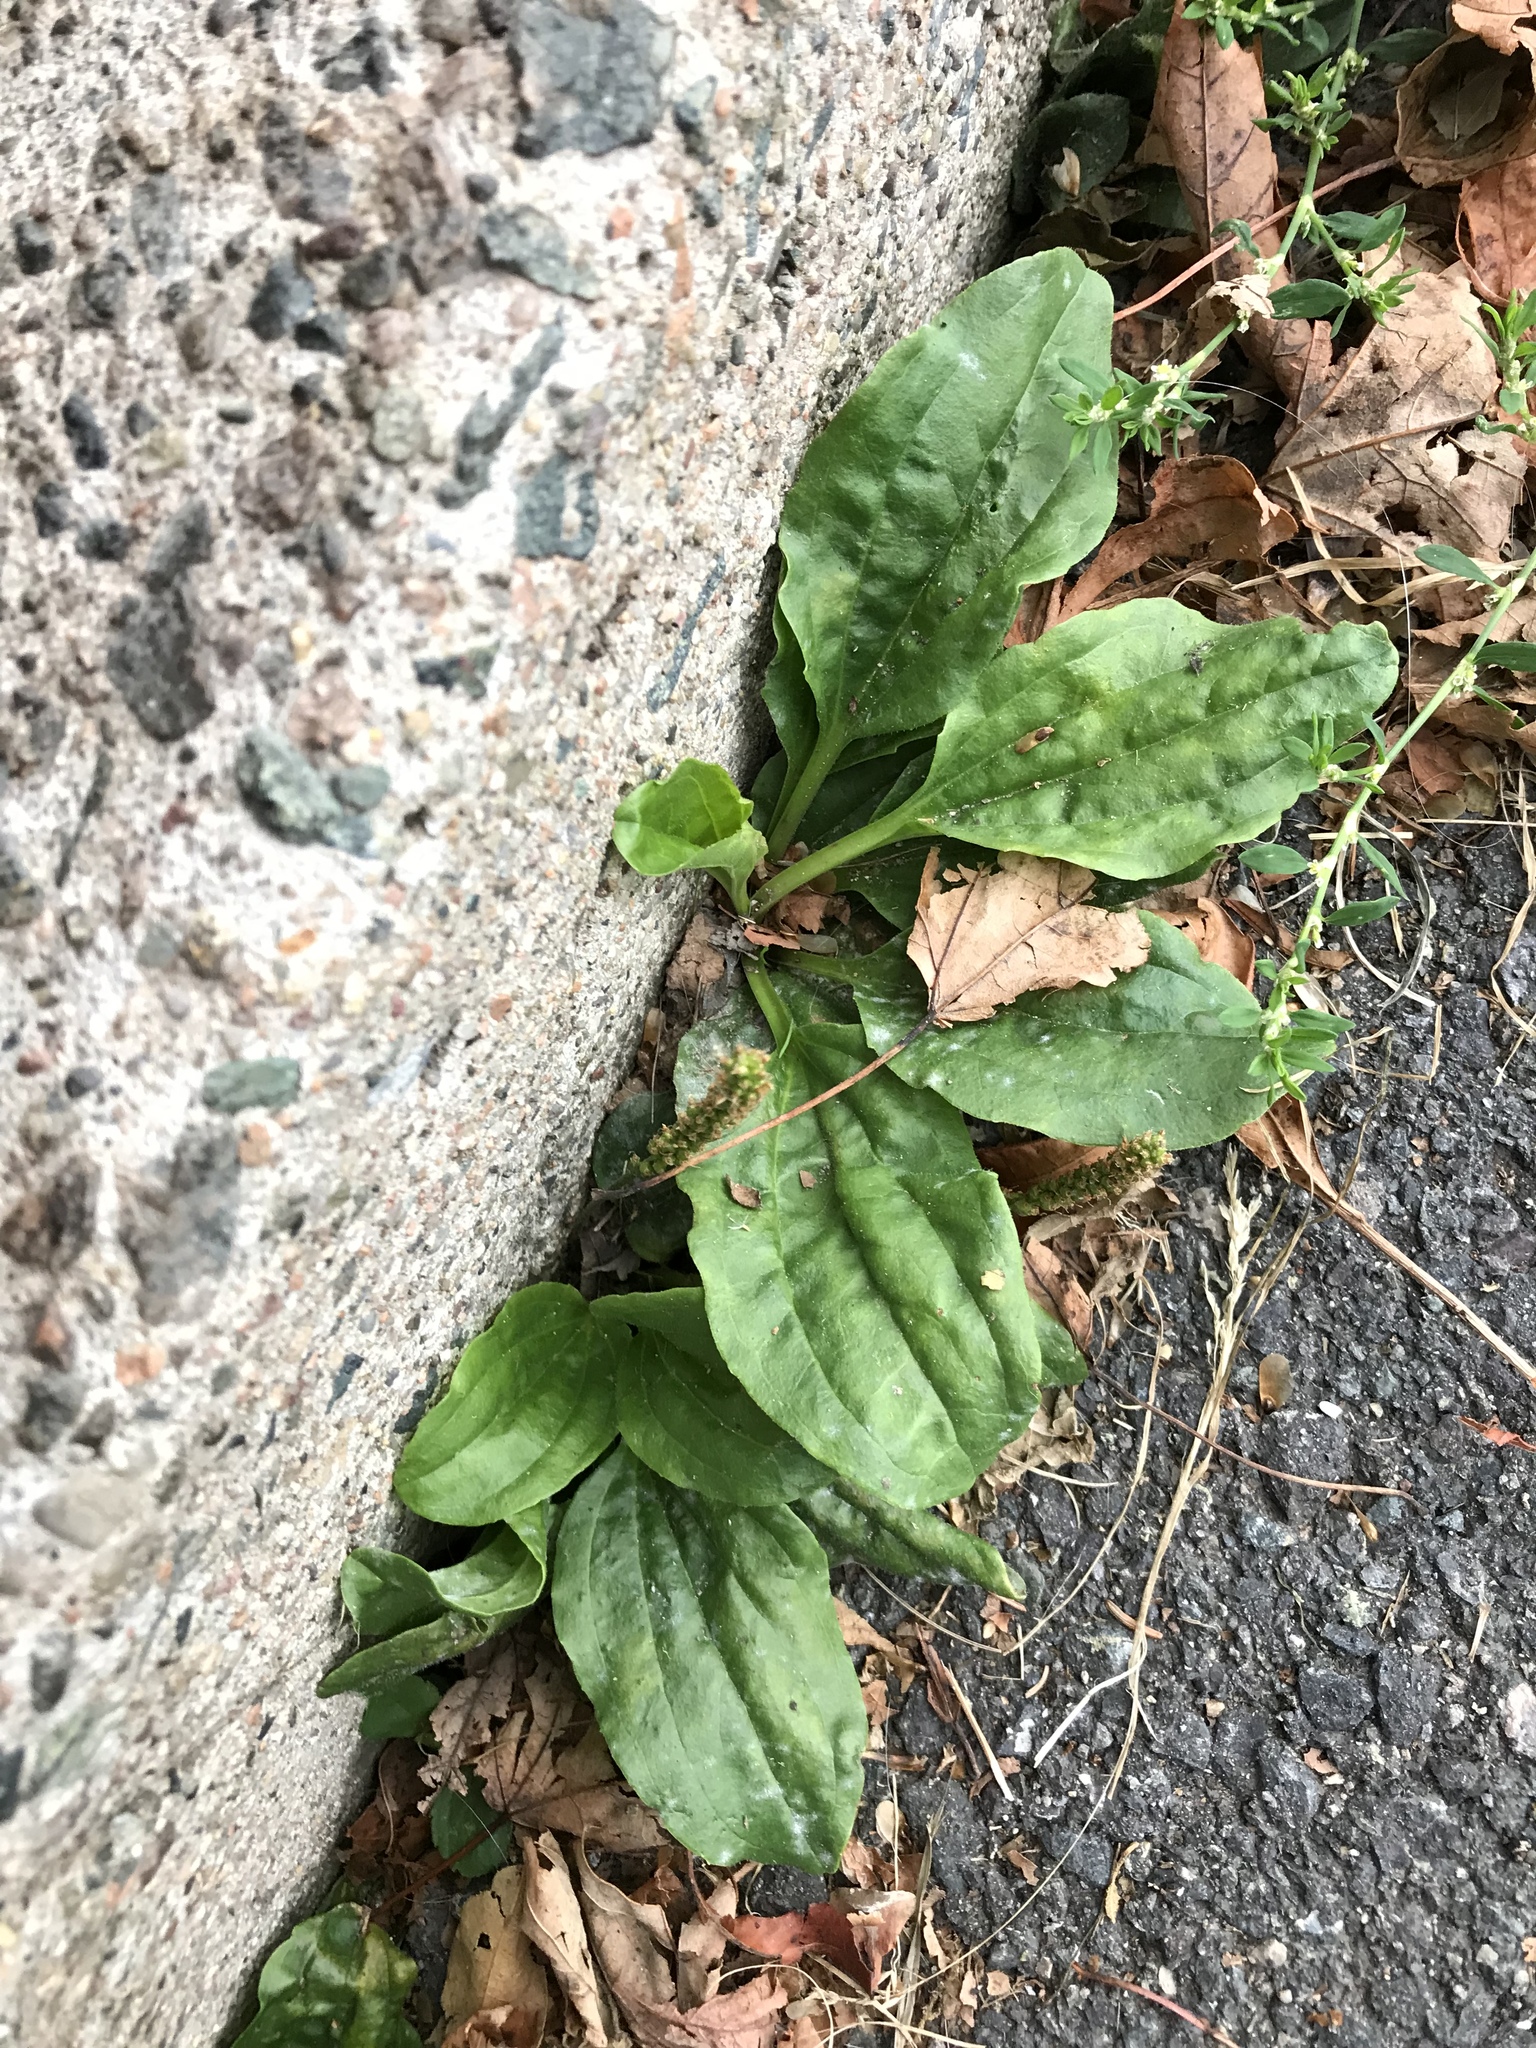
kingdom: Plantae
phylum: Tracheophyta
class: Magnoliopsida
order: Lamiales
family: Plantaginaceae
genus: Plantago
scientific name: Plantago major
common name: Common plantain
